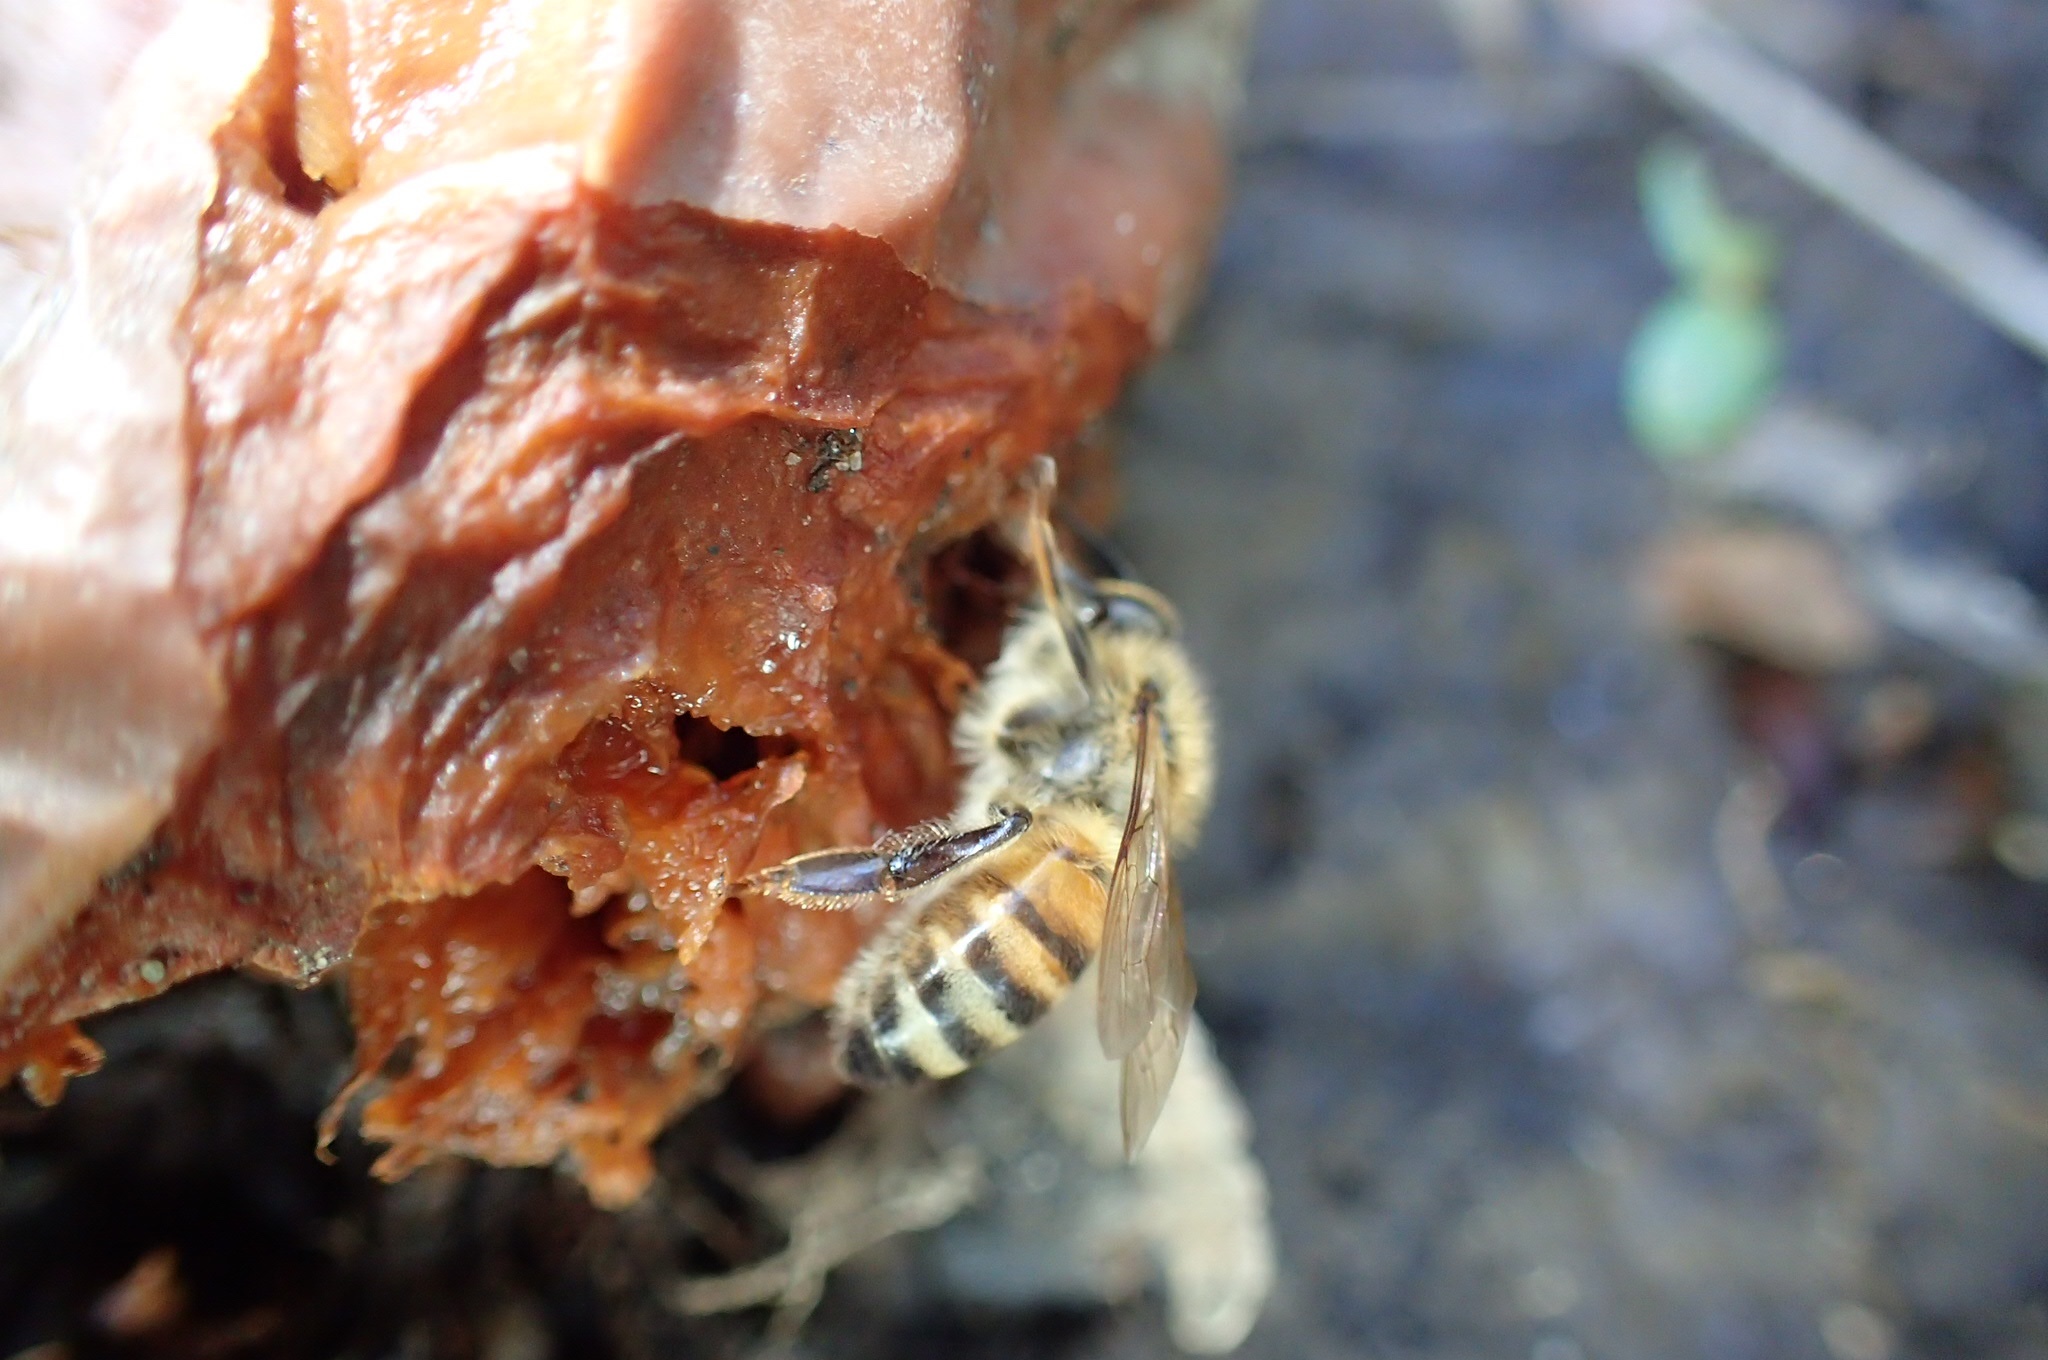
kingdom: Animalia
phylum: Arthropoda
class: Insecta
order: Hymenoptera
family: Apidae
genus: Apis
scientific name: Apis mellifera
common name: Honey bee
